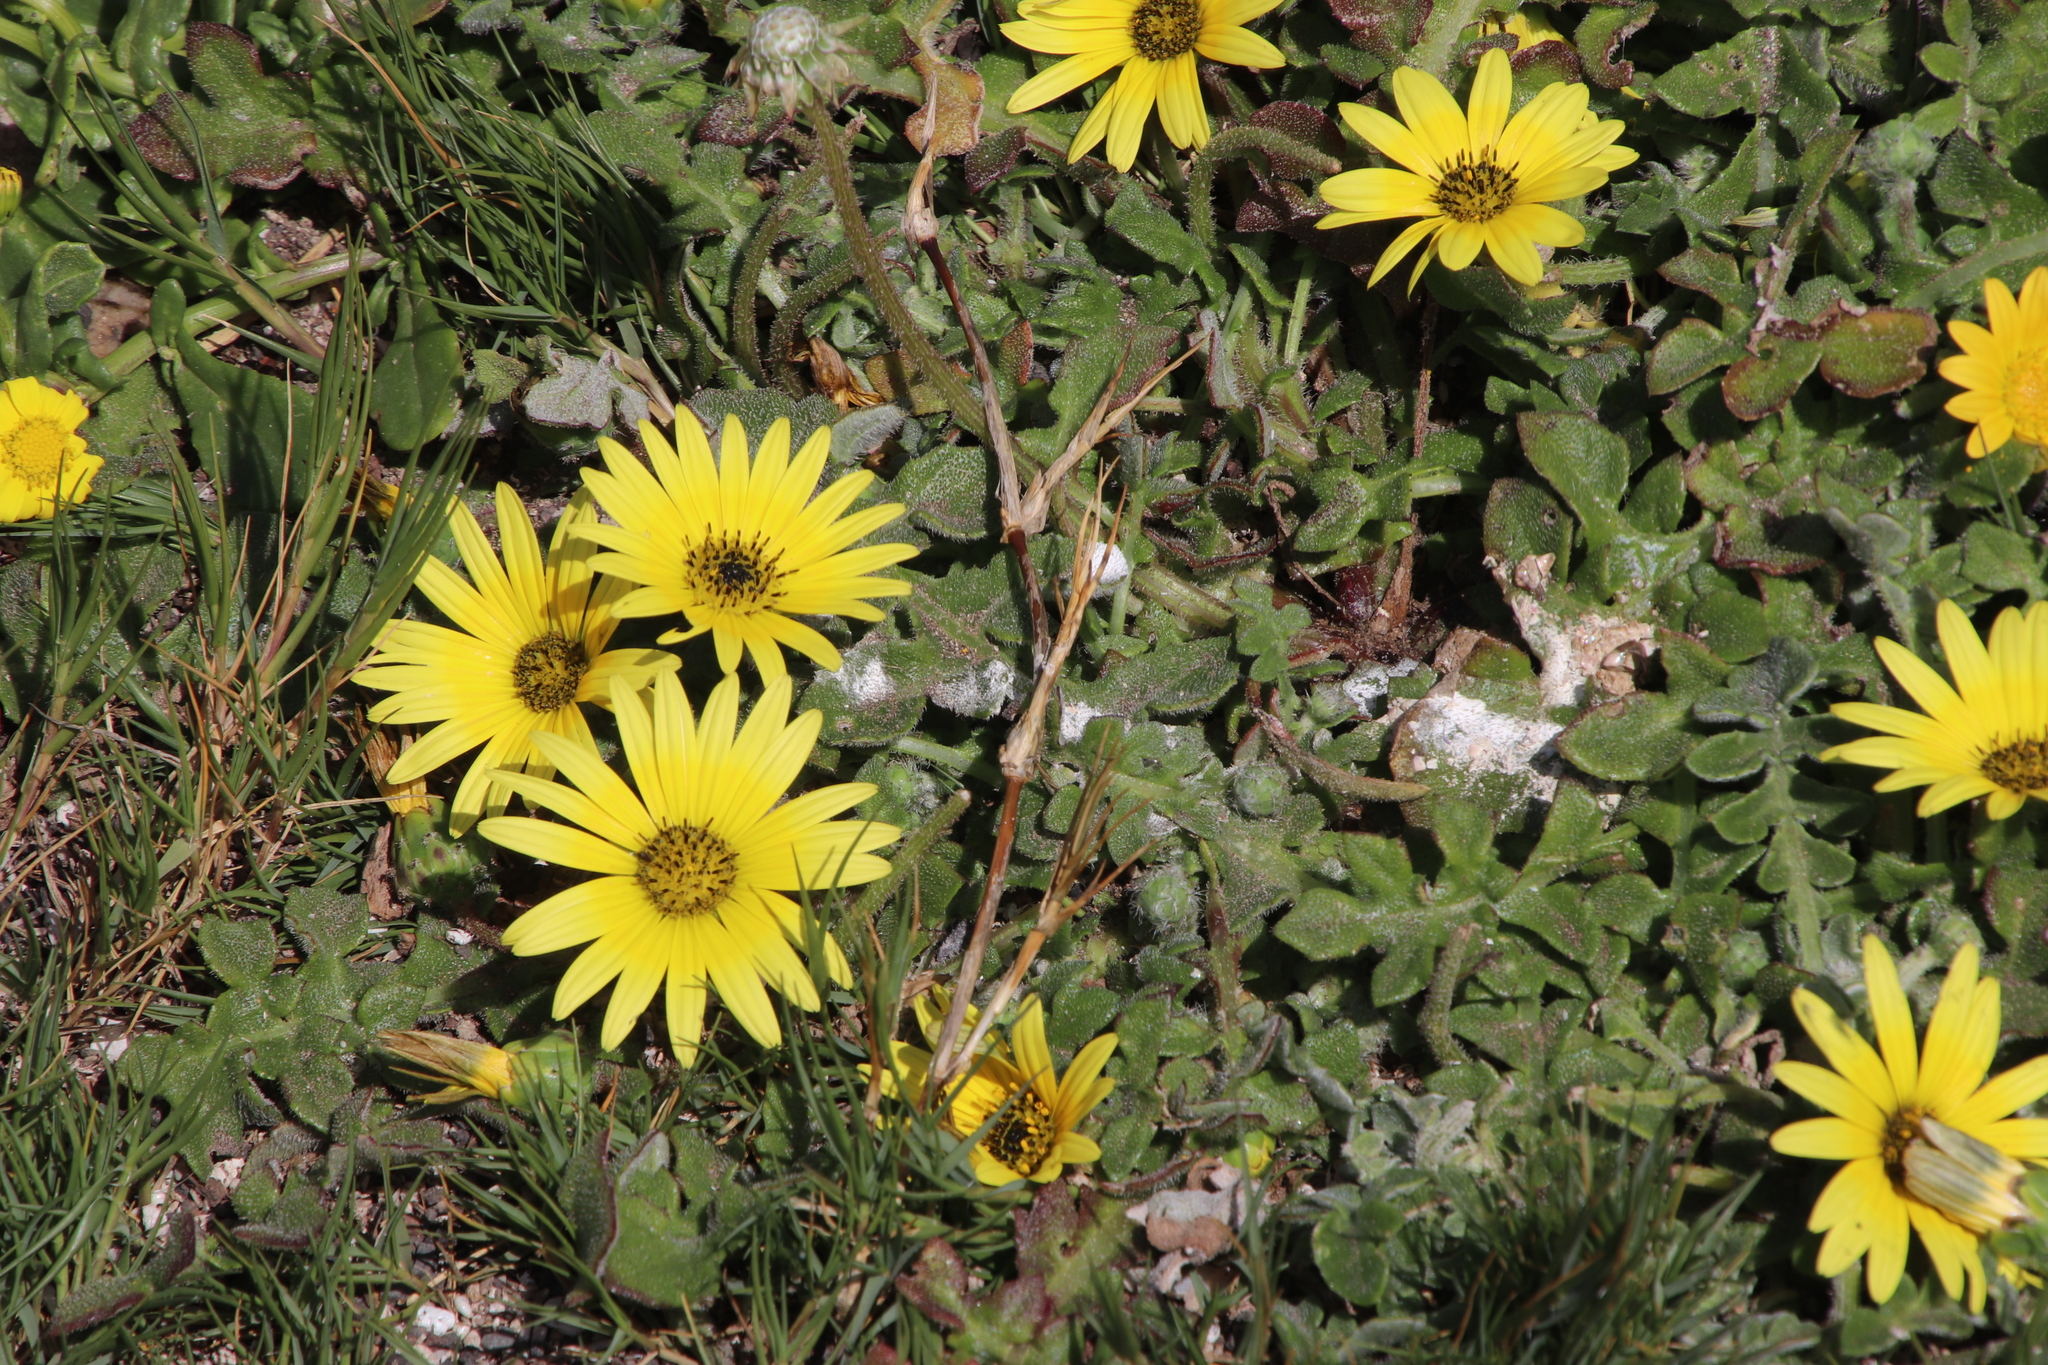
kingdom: Plantae
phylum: Tracheophyta
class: Magnoliopsida
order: Asterales
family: Asteraceae
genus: Arctotheca
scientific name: Arctotheca calendula
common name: Capeweed
